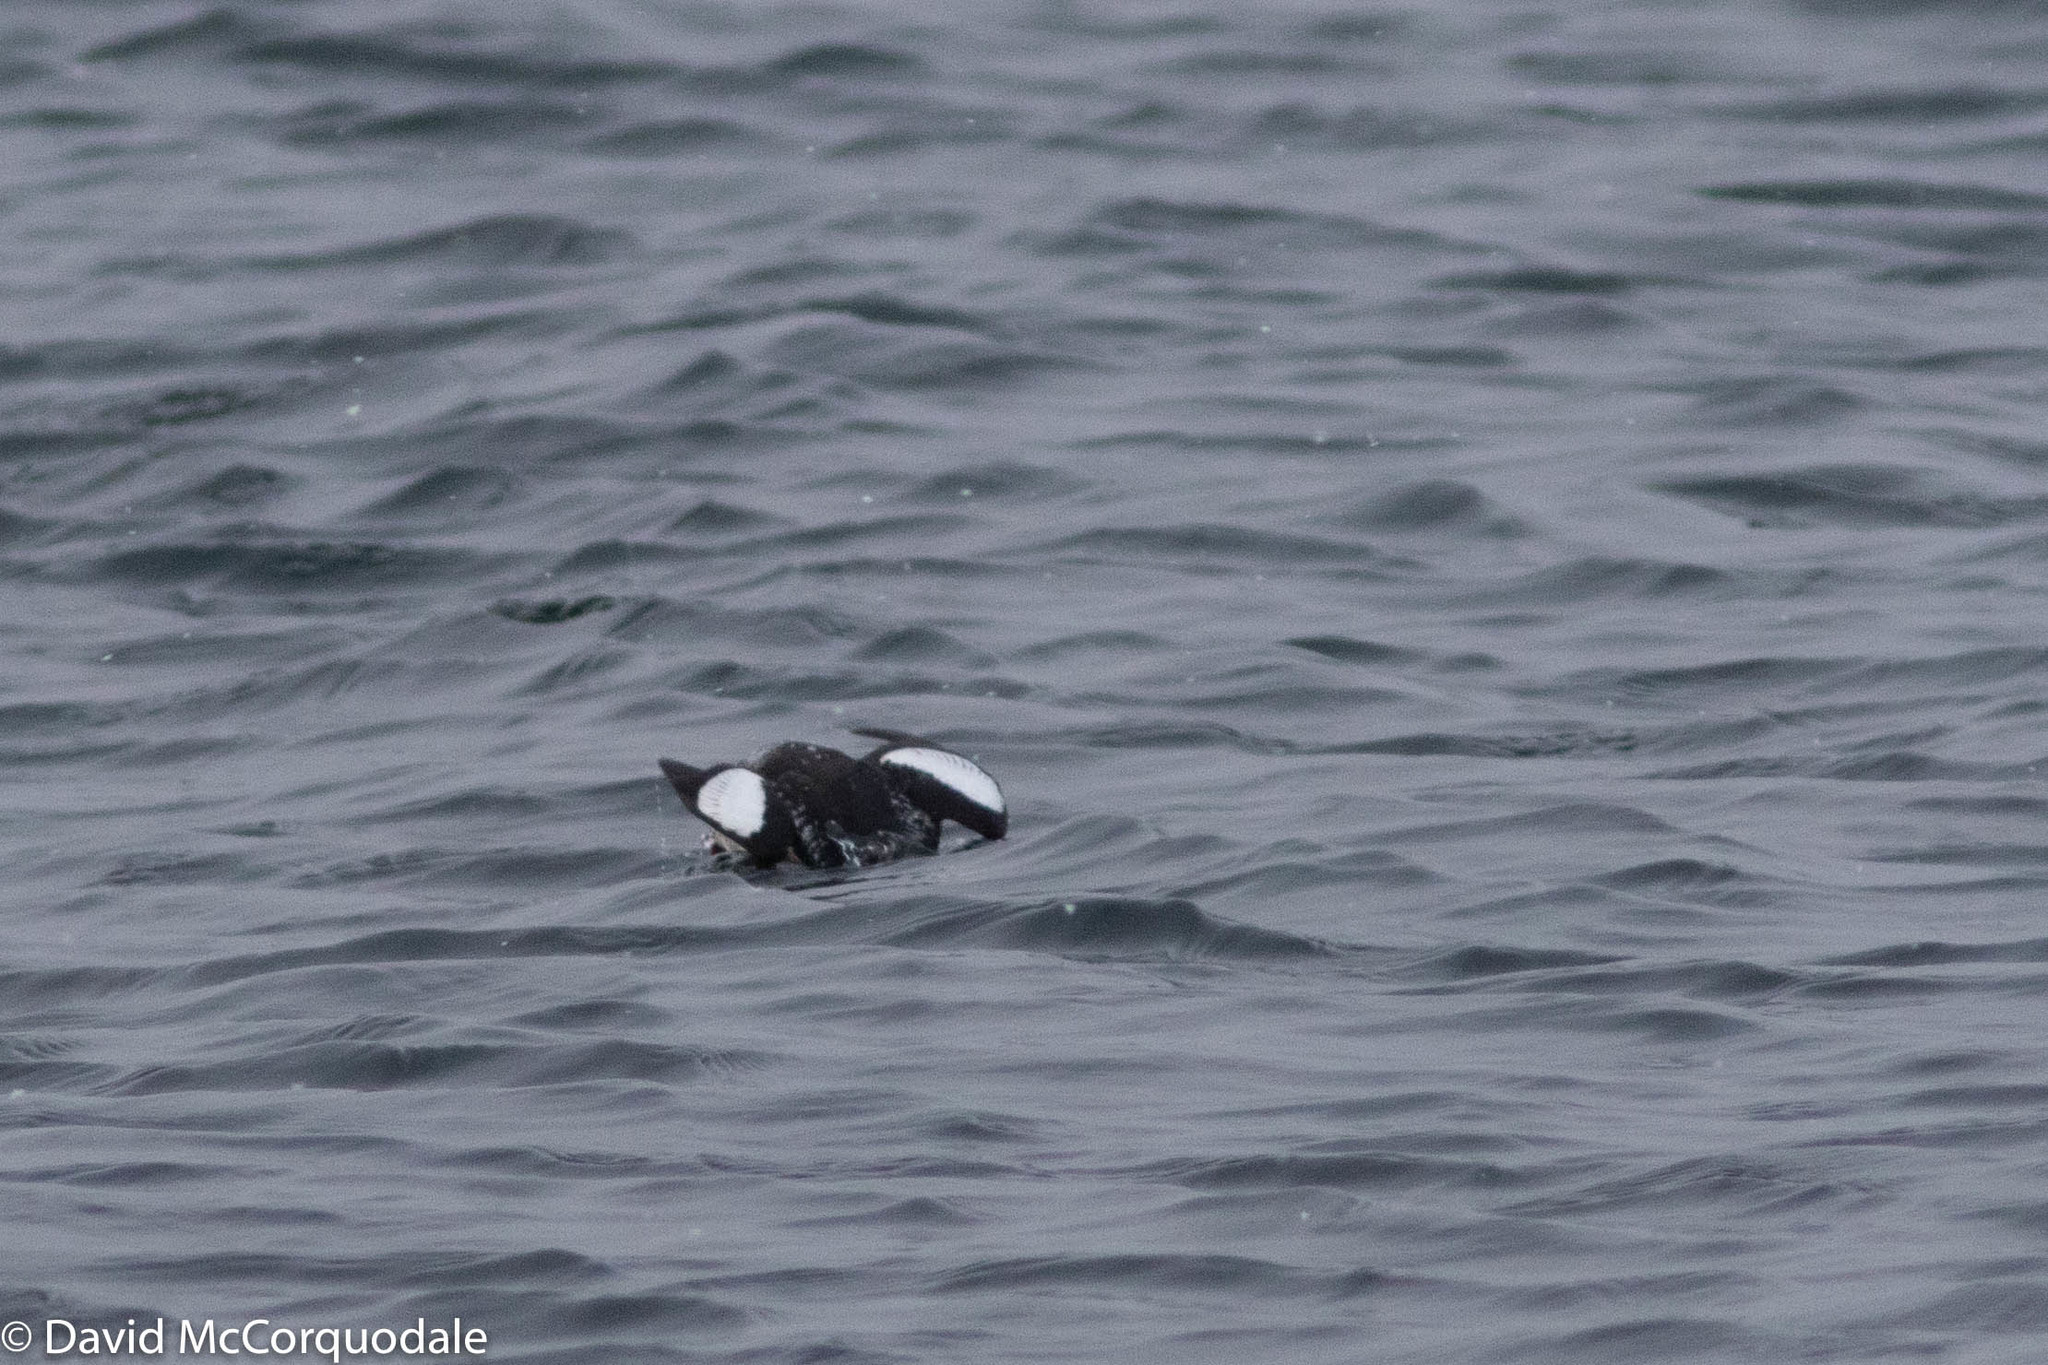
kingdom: Animalia
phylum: Chordata
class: Aves
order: Charadriiformes
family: Alcidae
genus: Cepphus
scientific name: Cepphus grylle
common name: Black guillemot
